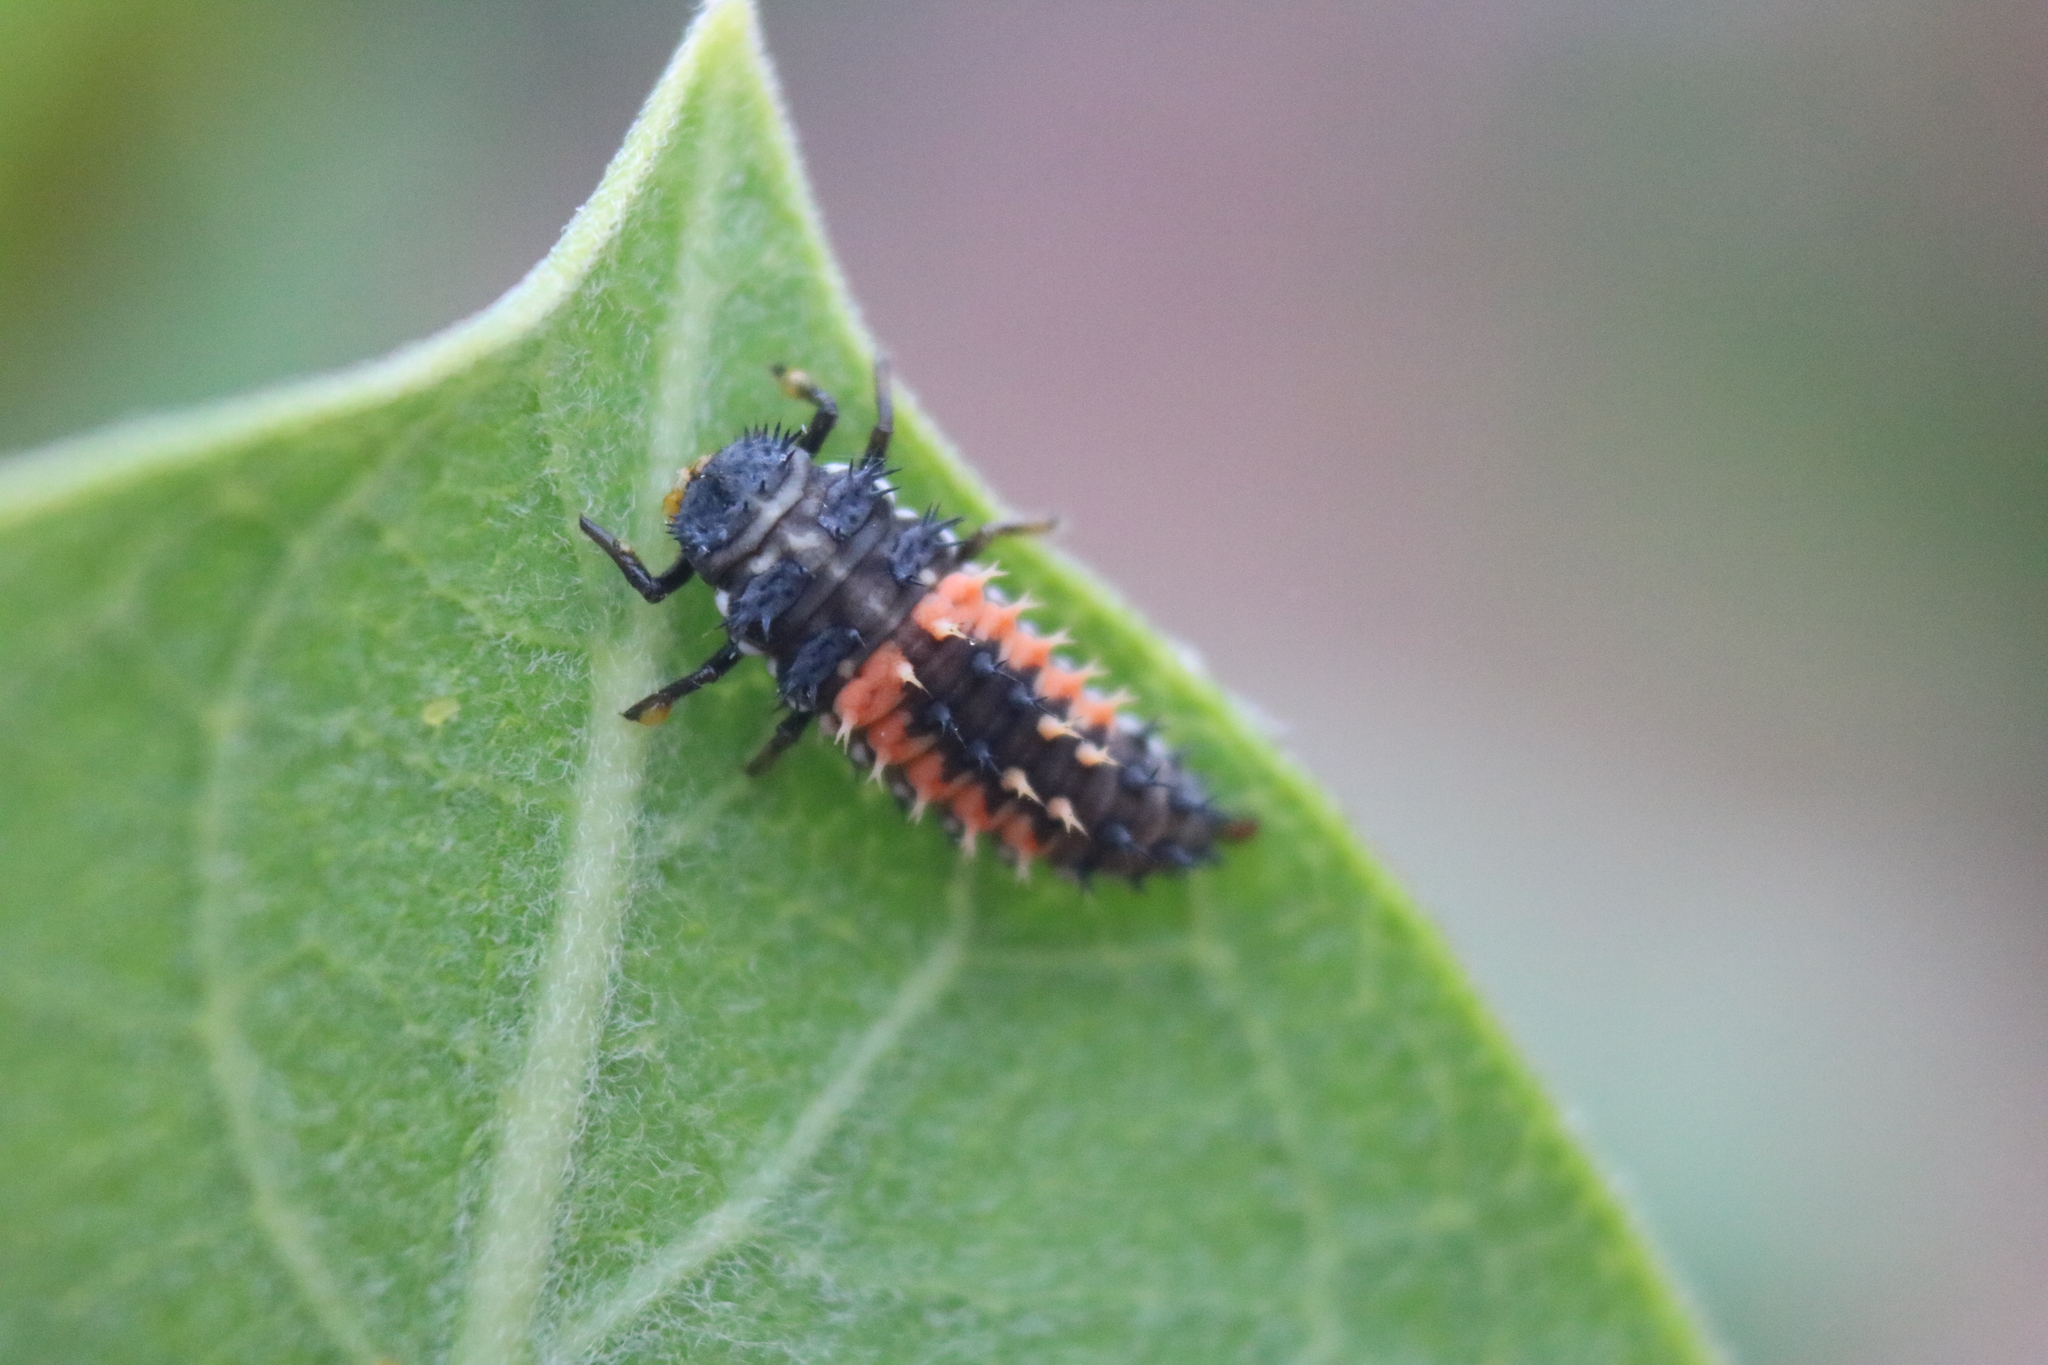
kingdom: Animalia
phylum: Arthropoda
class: Insecta
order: Coleoptera
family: Coccinellidae
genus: Harmonia
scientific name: Harmonia axyridis
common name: Harlequin ladybird
